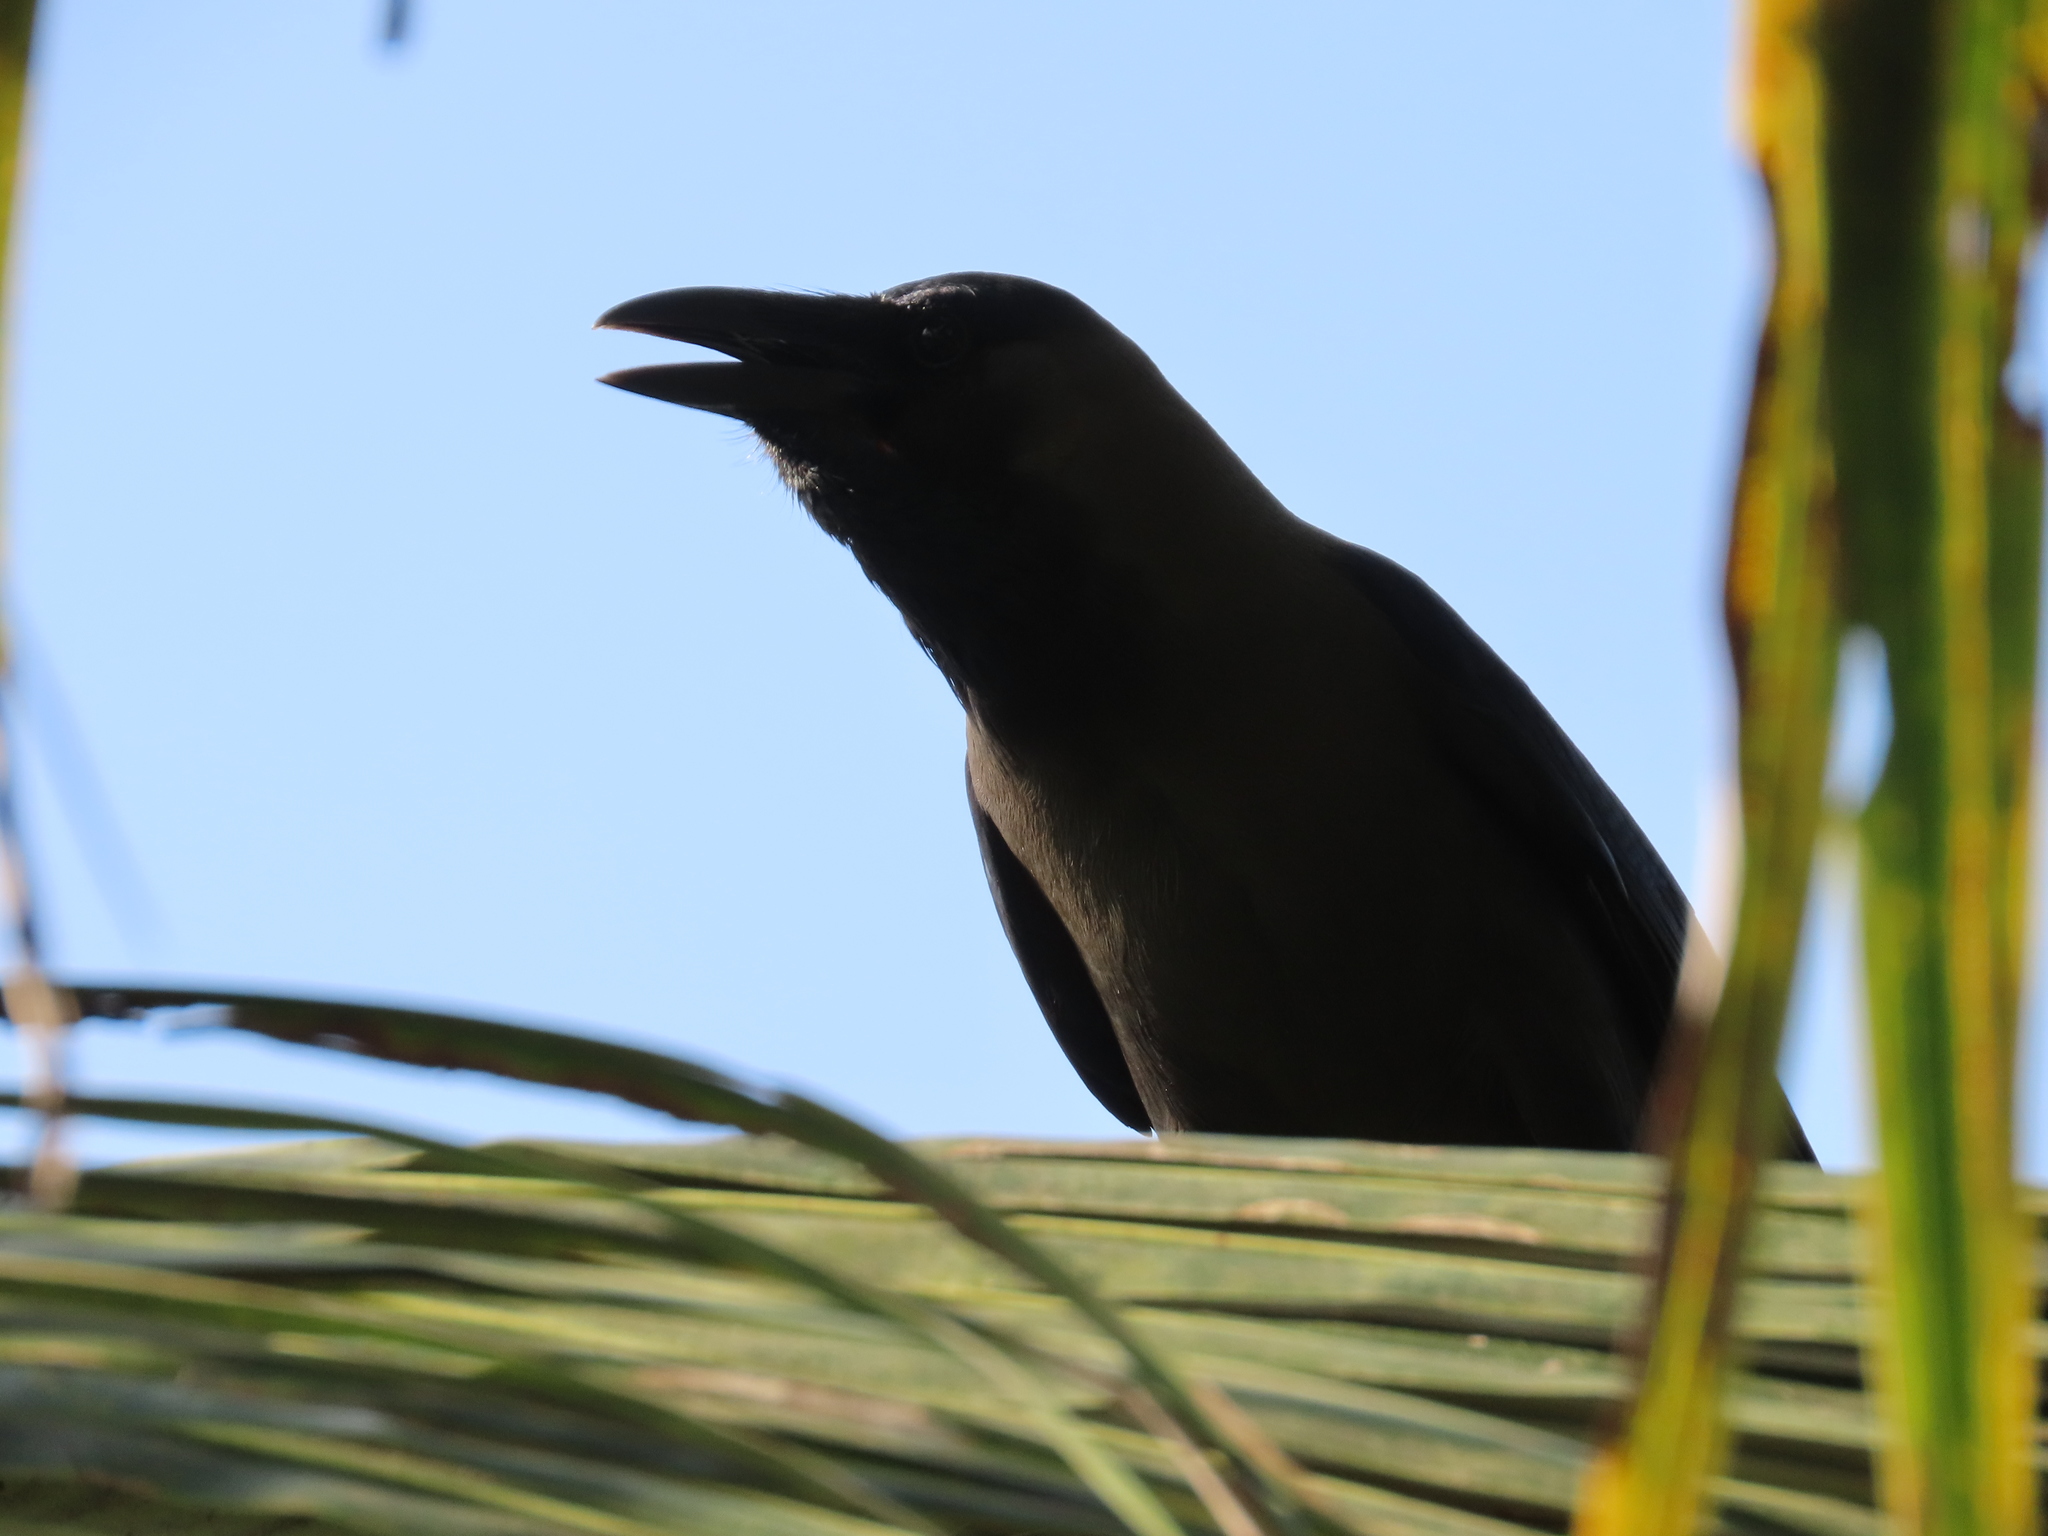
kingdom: Animalia
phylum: Chordata
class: Aves
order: Passeriformes
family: Corvidae
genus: Corvus
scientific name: Corvus splendens
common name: House crow
